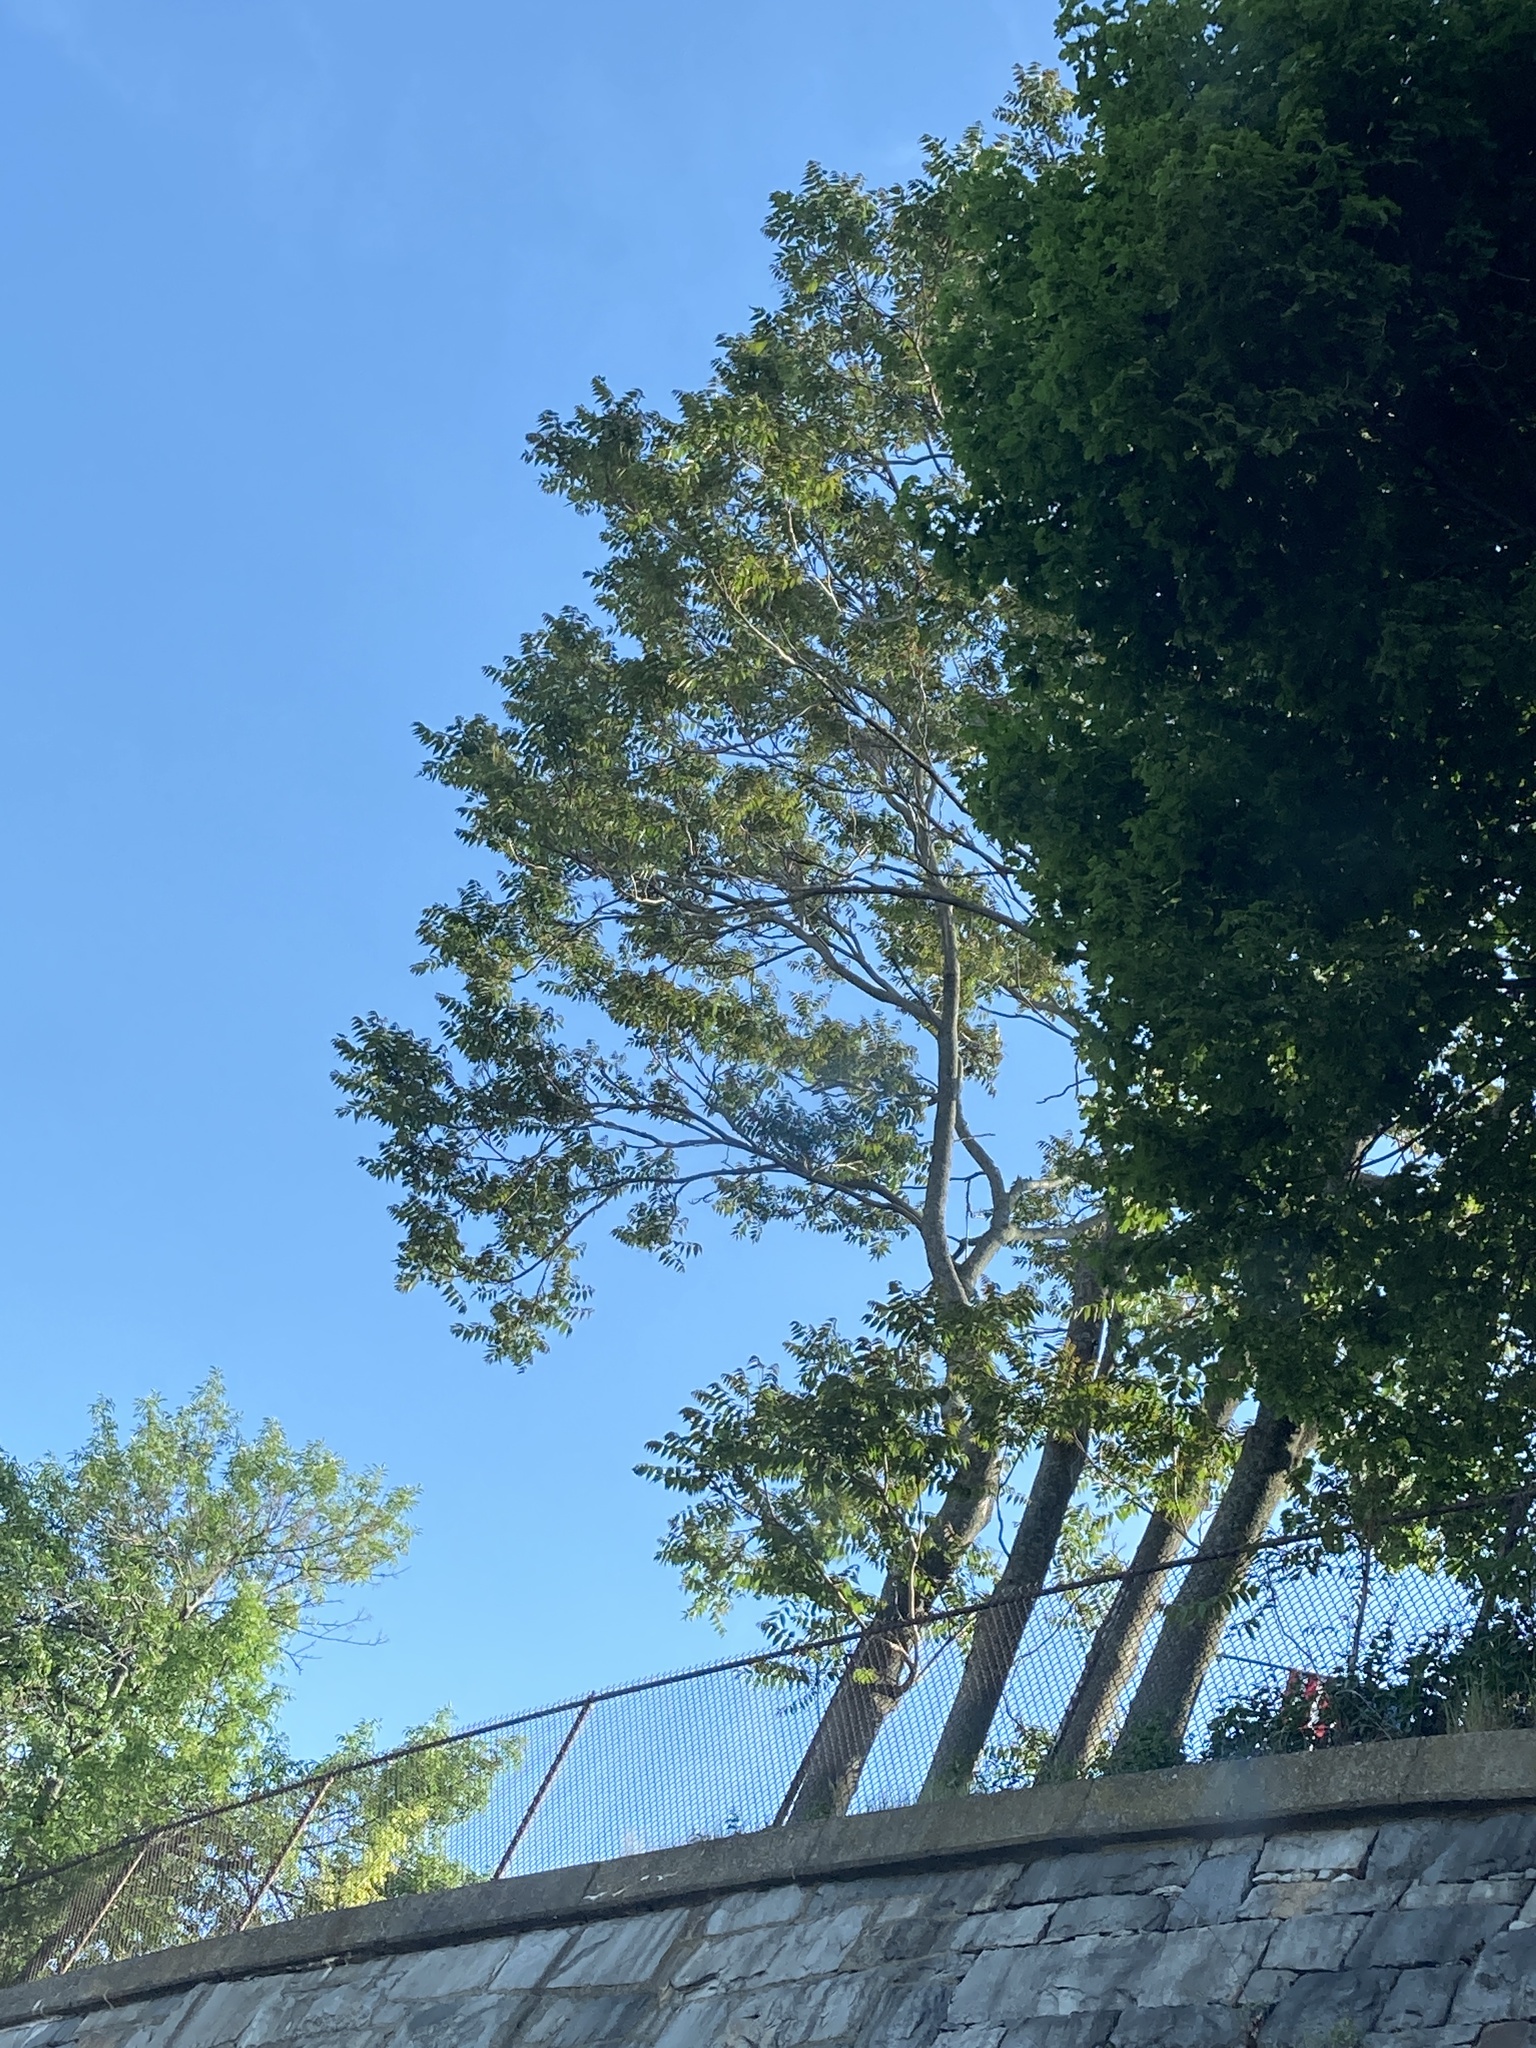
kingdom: Plantae
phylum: Tracheophyta
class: Magnoliopsida
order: Sapindales
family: Simaroubaceae
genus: Ailanthus
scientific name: Ailanthus altissima
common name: Tree-of-heaven
